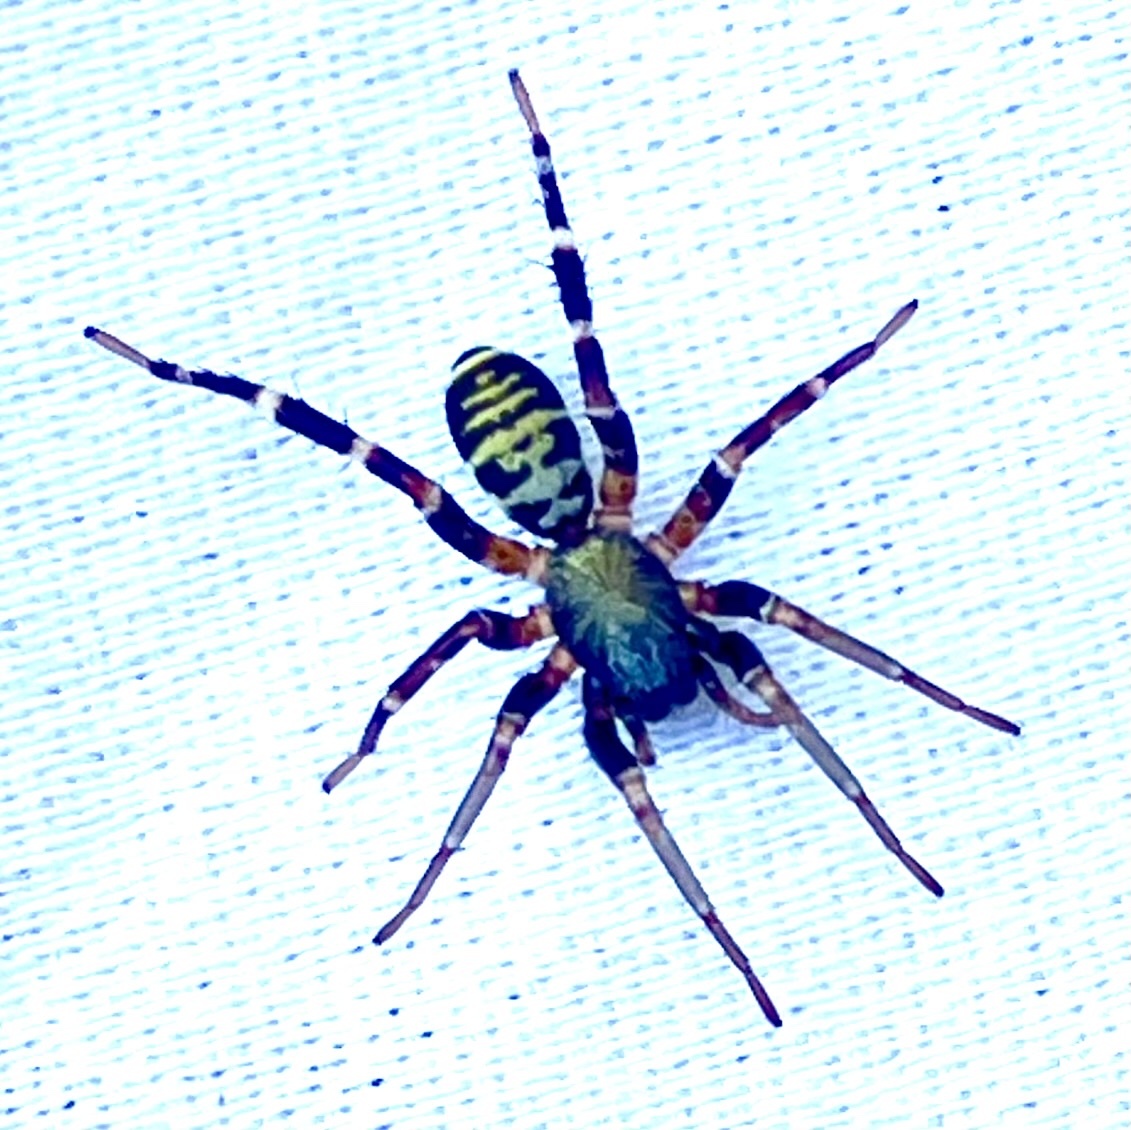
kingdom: Animalia
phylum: Arthropoda
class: Arachnida
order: Araneae
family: Corinnidae
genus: Castianeira
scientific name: Castianeira longipalpa
